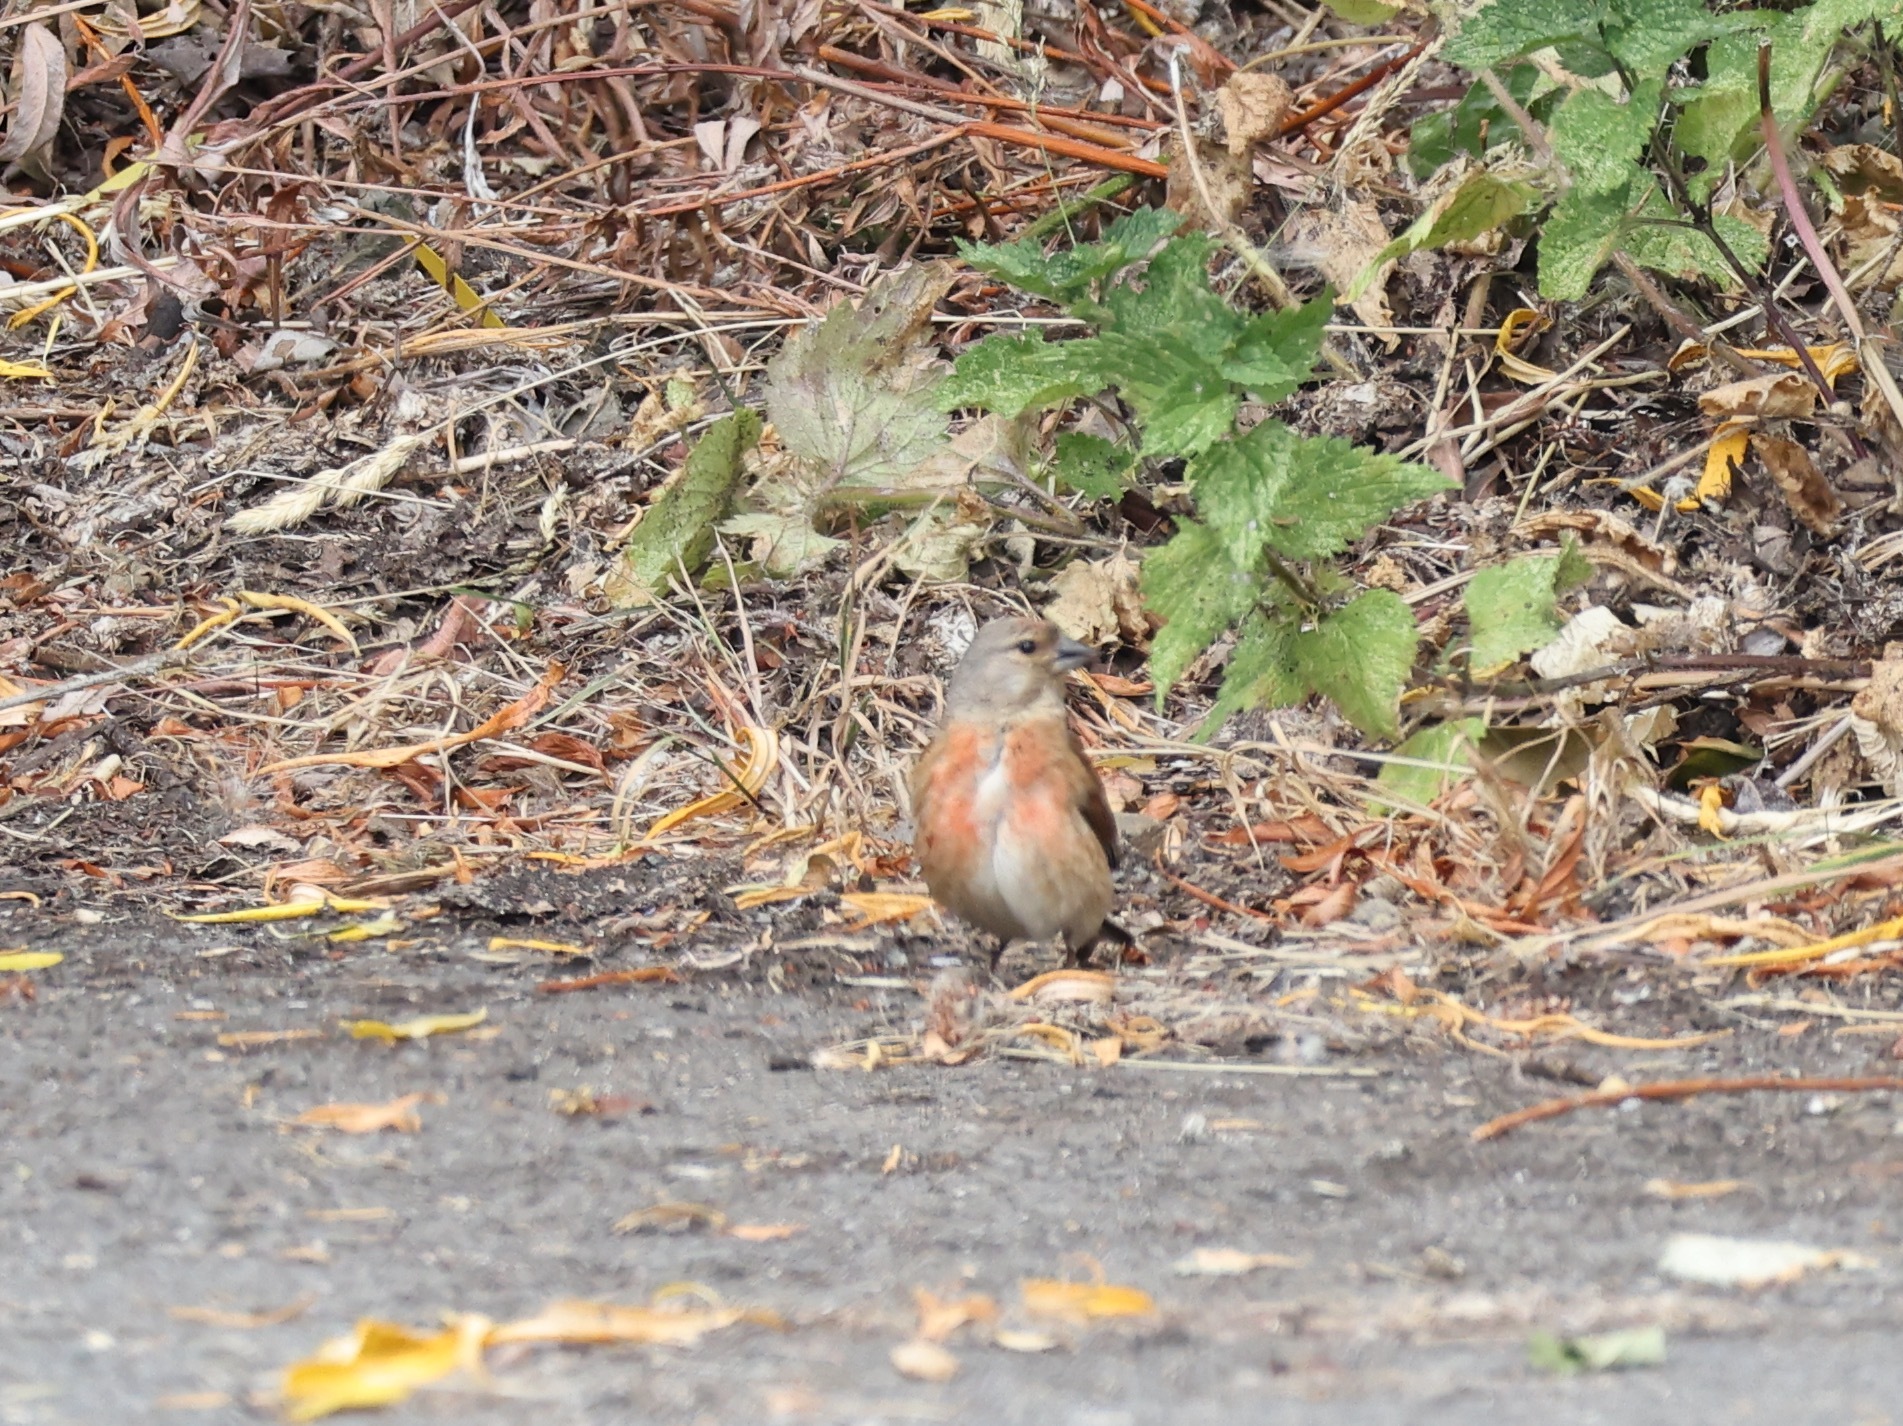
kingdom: Animalia
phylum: Chordata
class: Aves
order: Passeriformes
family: Fringillidae
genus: Linaria
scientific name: Linaria cannabina
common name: Common linnet
